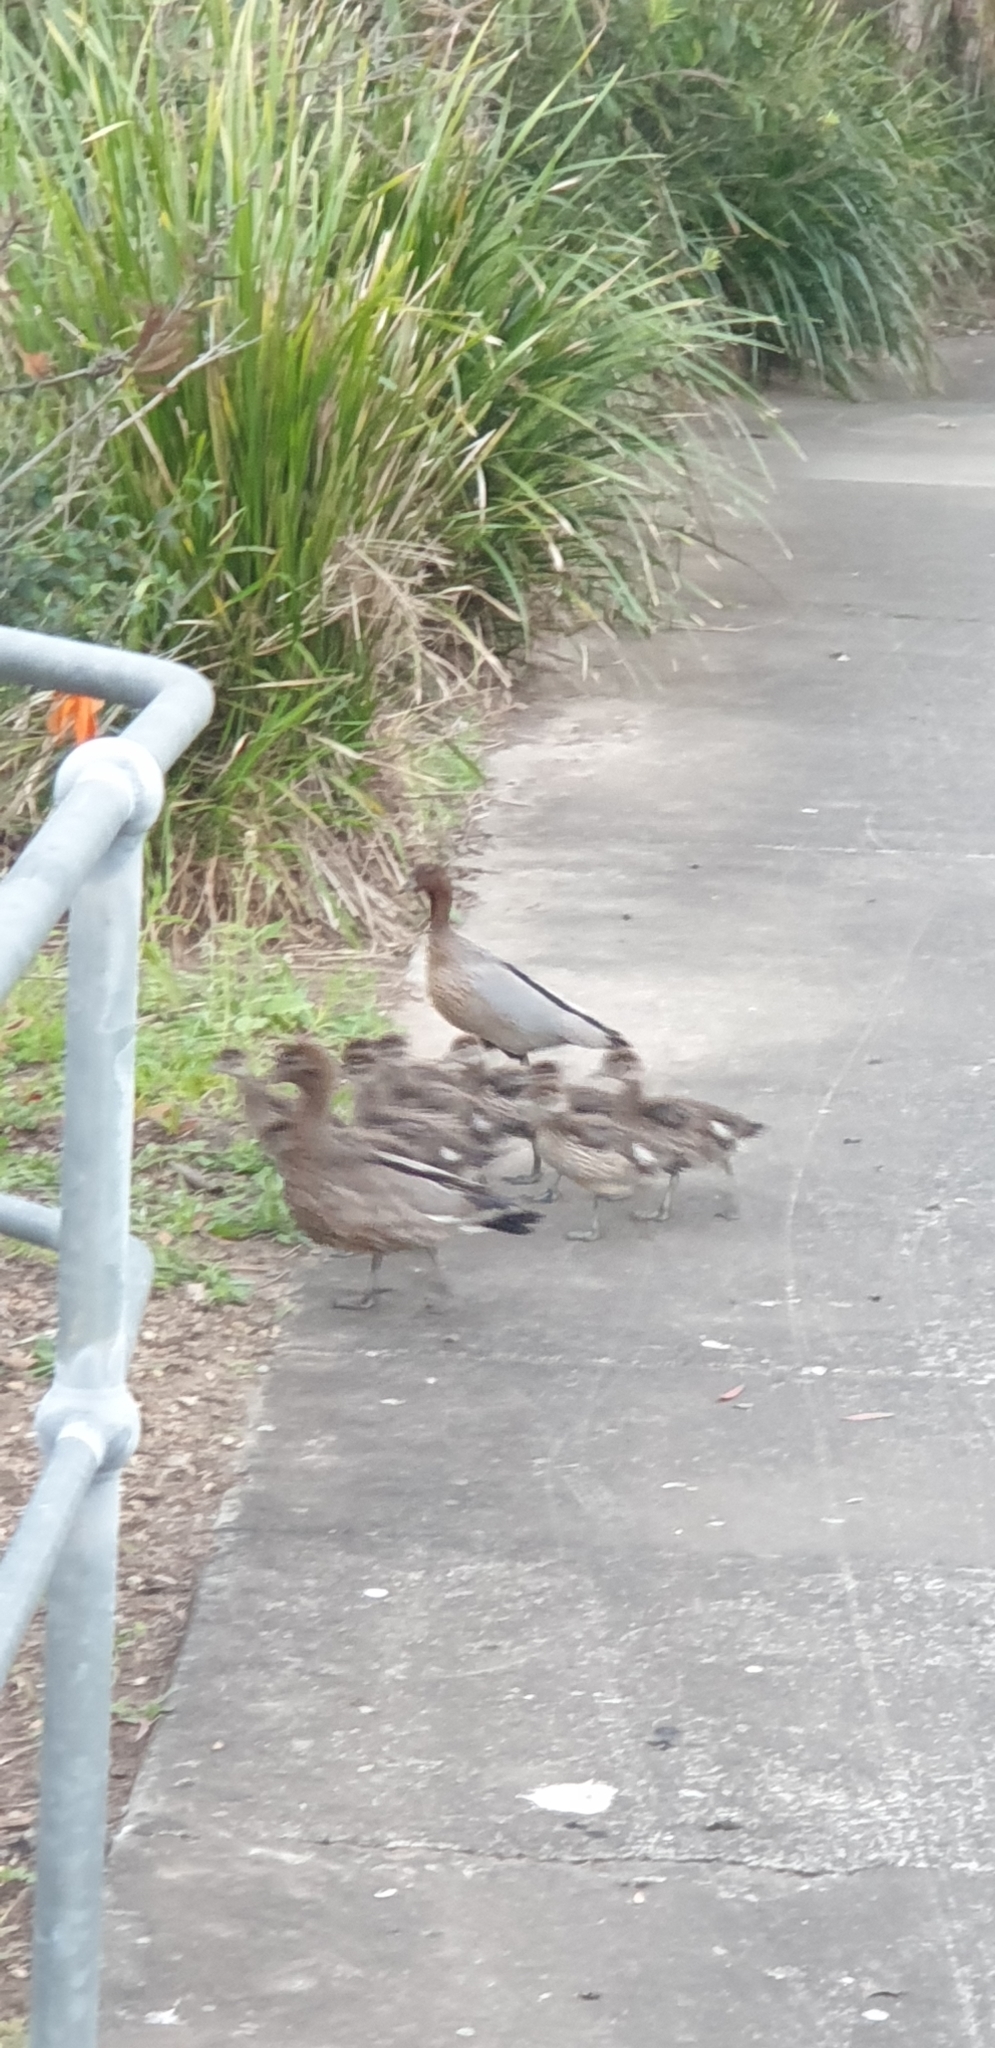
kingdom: Animalia
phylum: Chordata
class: Aves
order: Anseriformes
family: Anatidae
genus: Chenonetta
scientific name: Chenonetta jubata
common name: Maned duck
